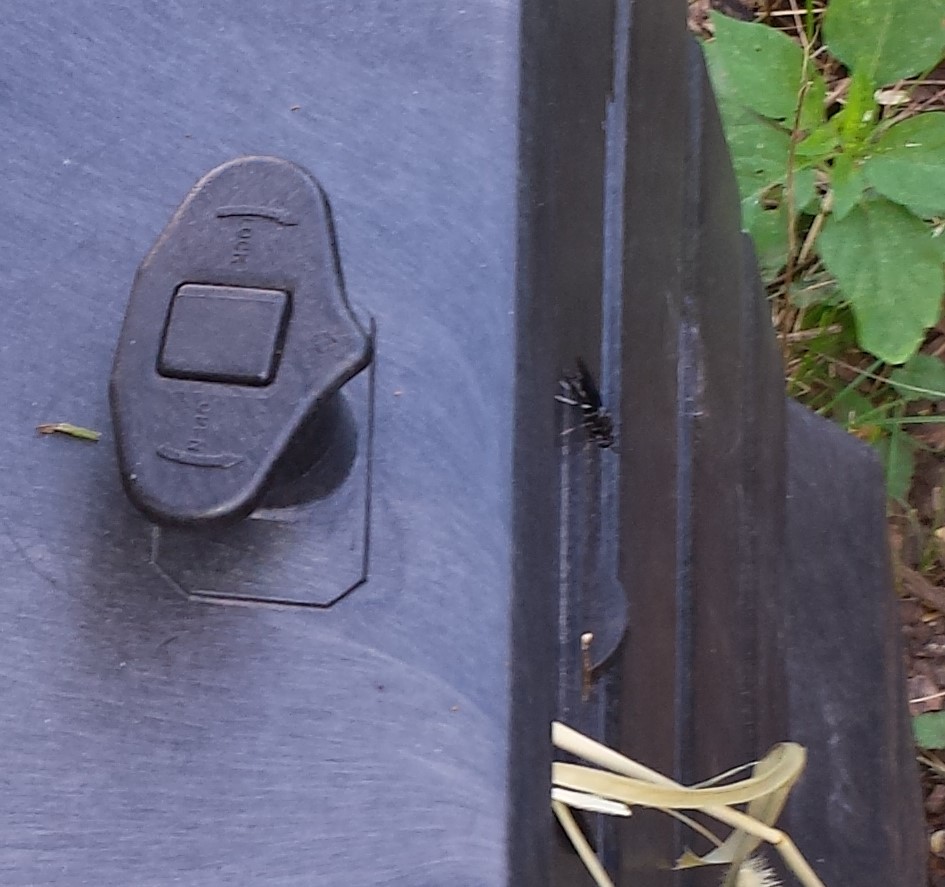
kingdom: Animalia
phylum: Arthropoda
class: Insecta
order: Diptera
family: Stratiomyidae
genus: Hermetia
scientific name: Hermetia illucens
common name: Black soldier fly
